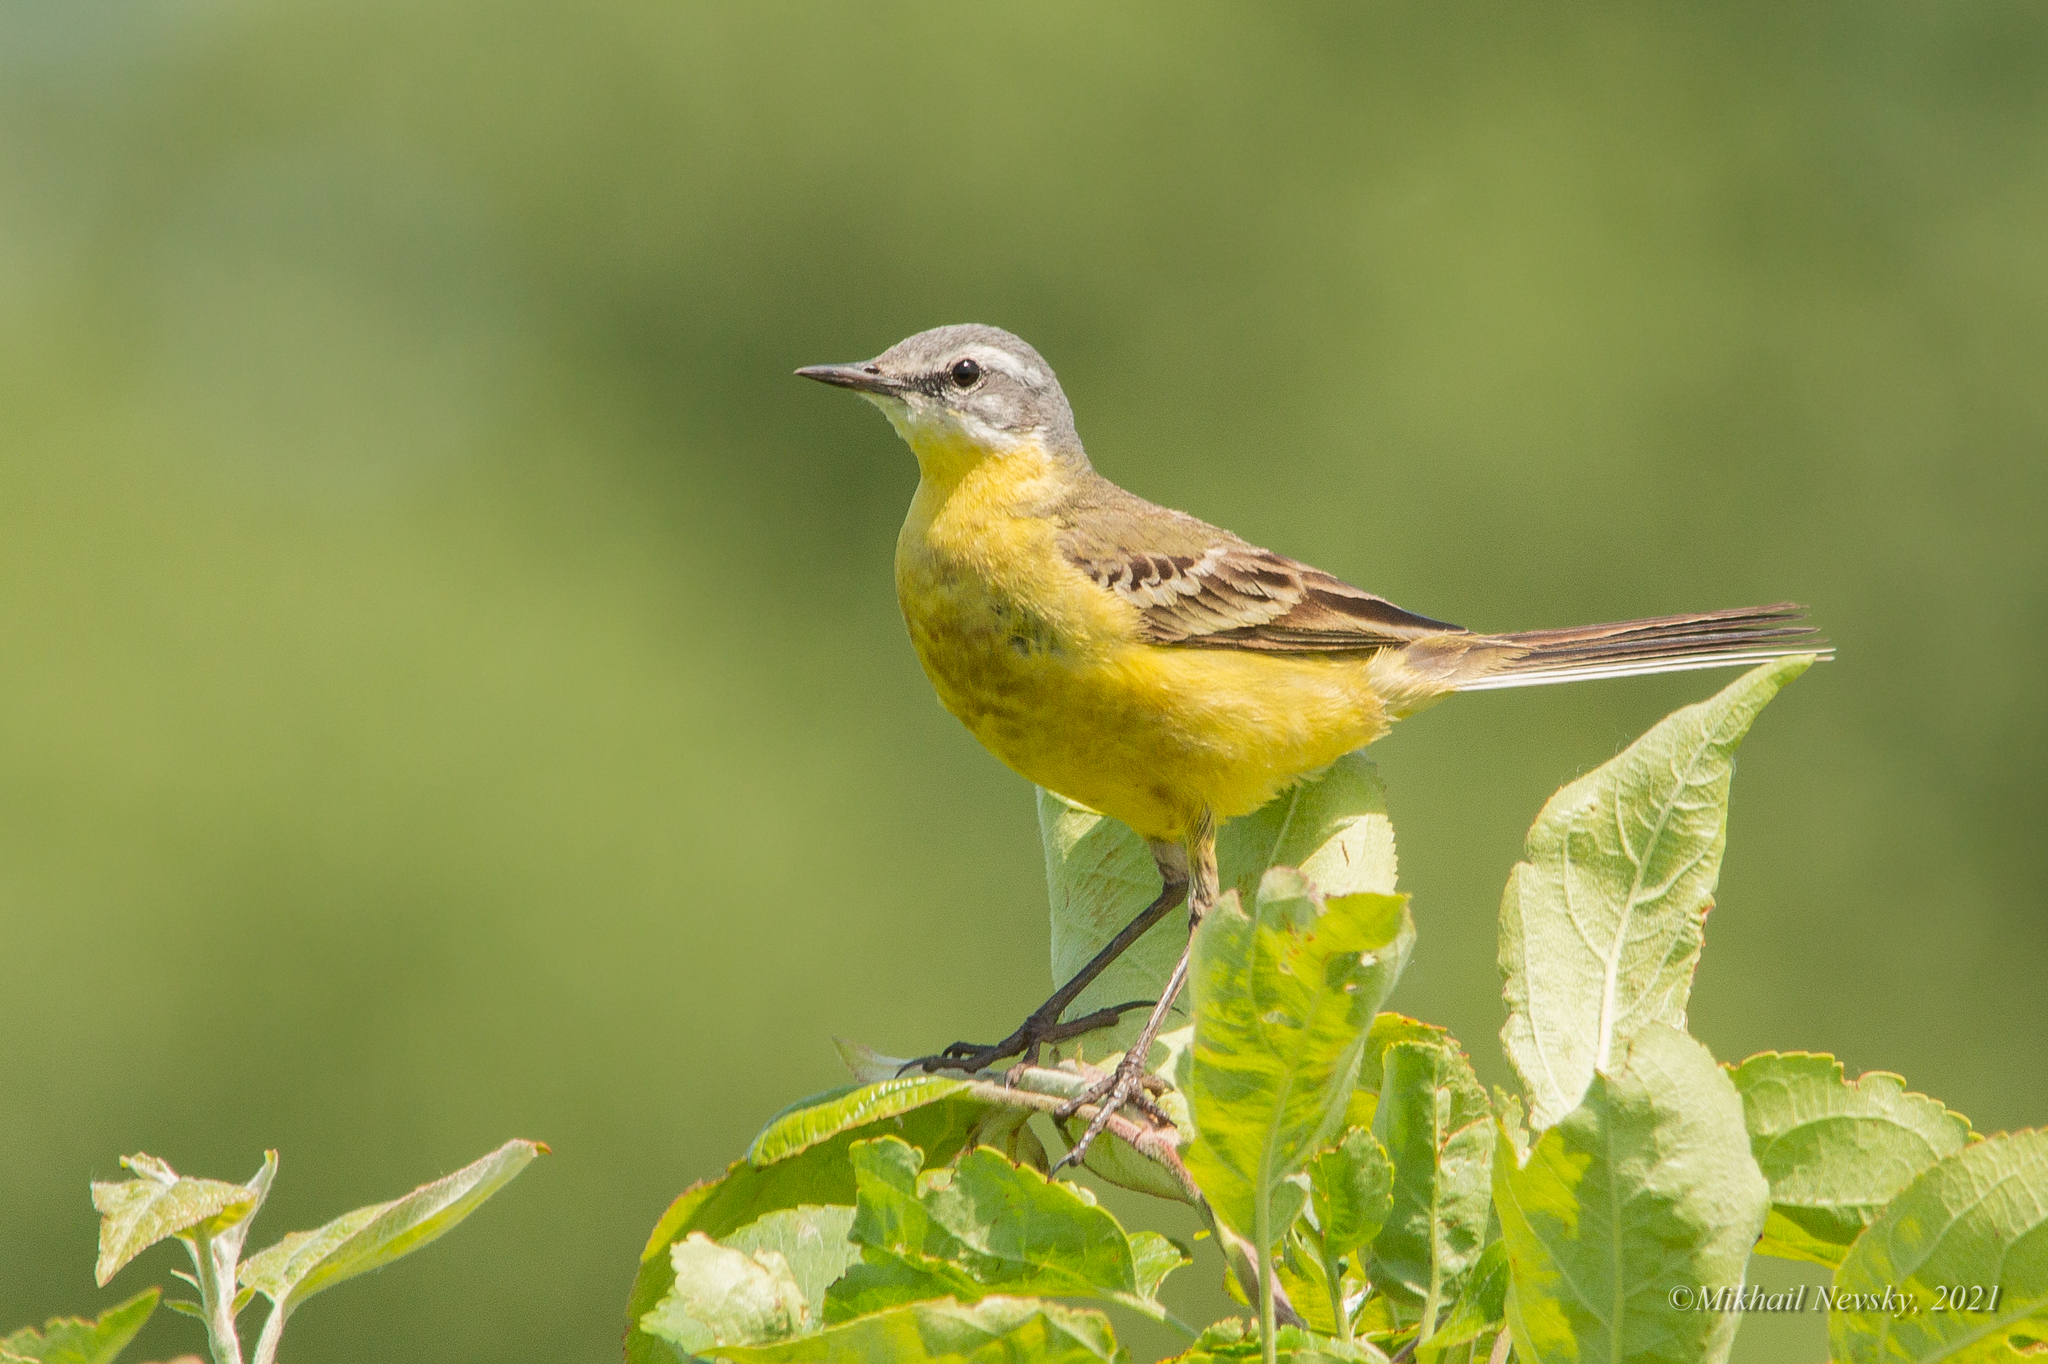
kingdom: Animalia
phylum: Chordata
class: Aves
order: Passeriformes
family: Motacillidae
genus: Motacilla
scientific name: Motacilla flava
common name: Western yellow wagtail
